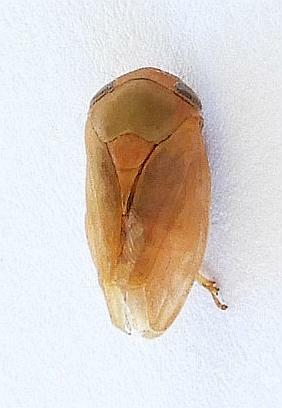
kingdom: Animalia
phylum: Arthropoda
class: Insecta
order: Hemiptera
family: Clastopteridae
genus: Clastoptera
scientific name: Clastoptera osborni
